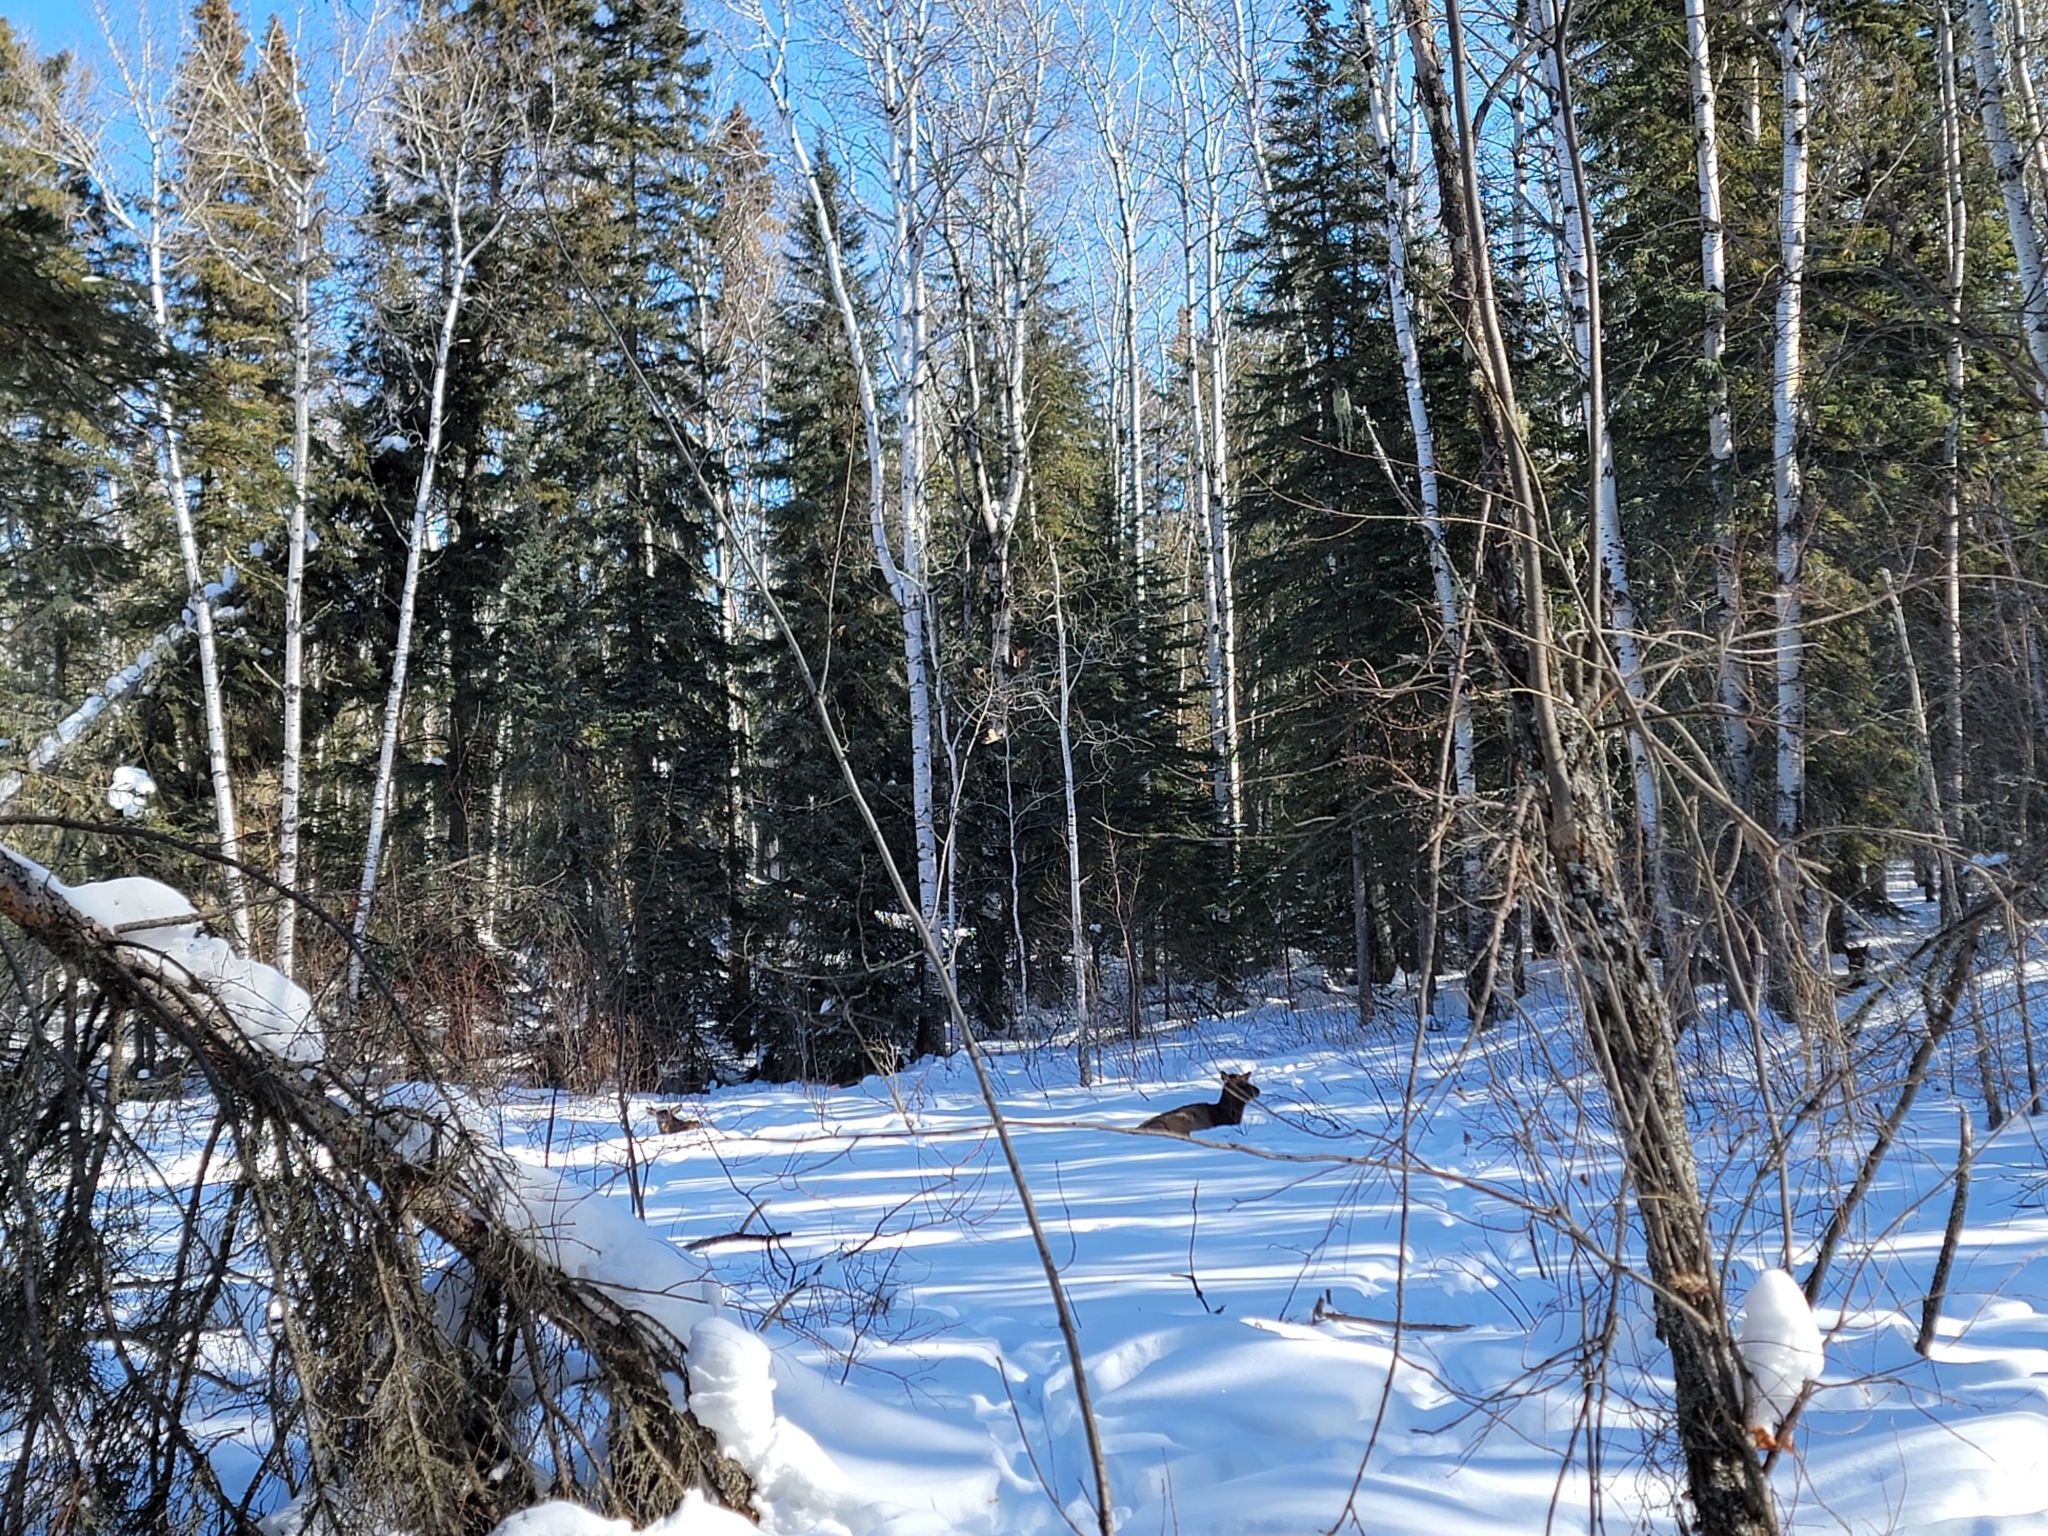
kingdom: Animalia
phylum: Chordata
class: Mammalia
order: Artiodactyla
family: Cervidae
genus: Cervus
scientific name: Cervus elaphus
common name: Red deer
